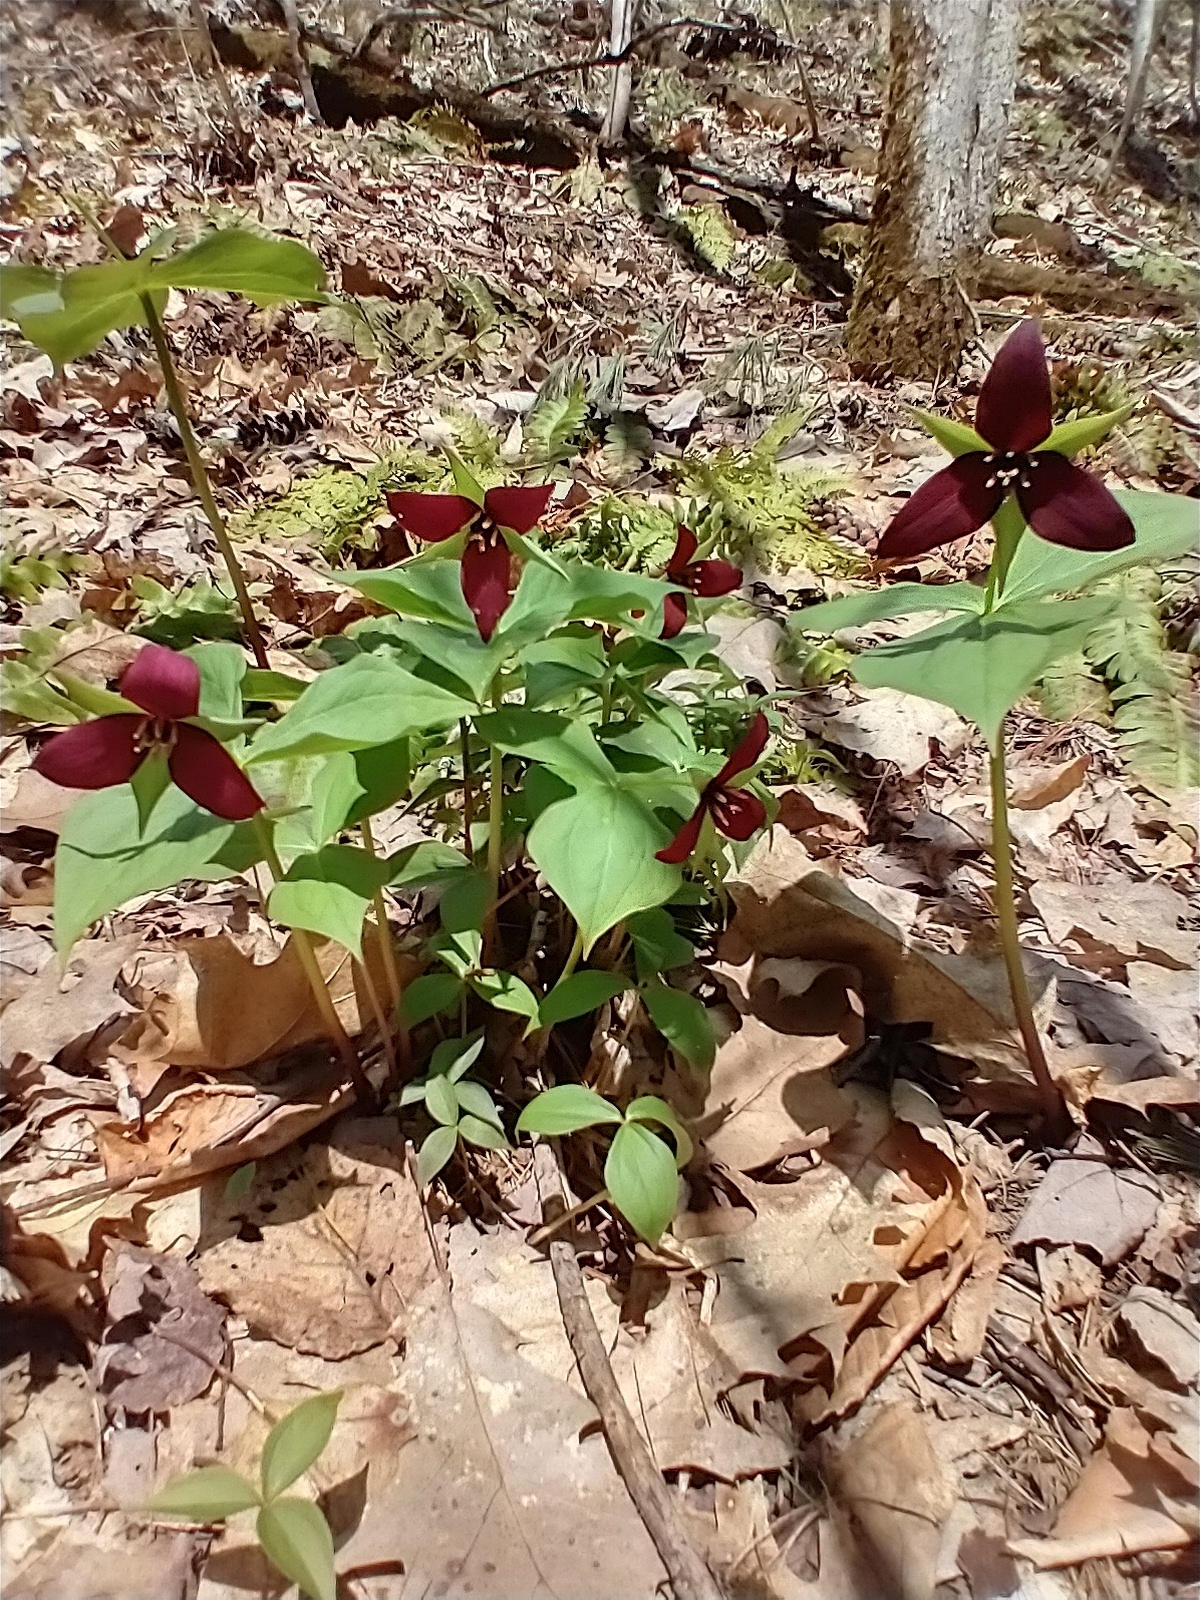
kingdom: Plantae
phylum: Tracheophyta
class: Liliopsida
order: Liliales
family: Melanthiaceae
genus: Trillium
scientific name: Trillium erectum
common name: Purple trillium
